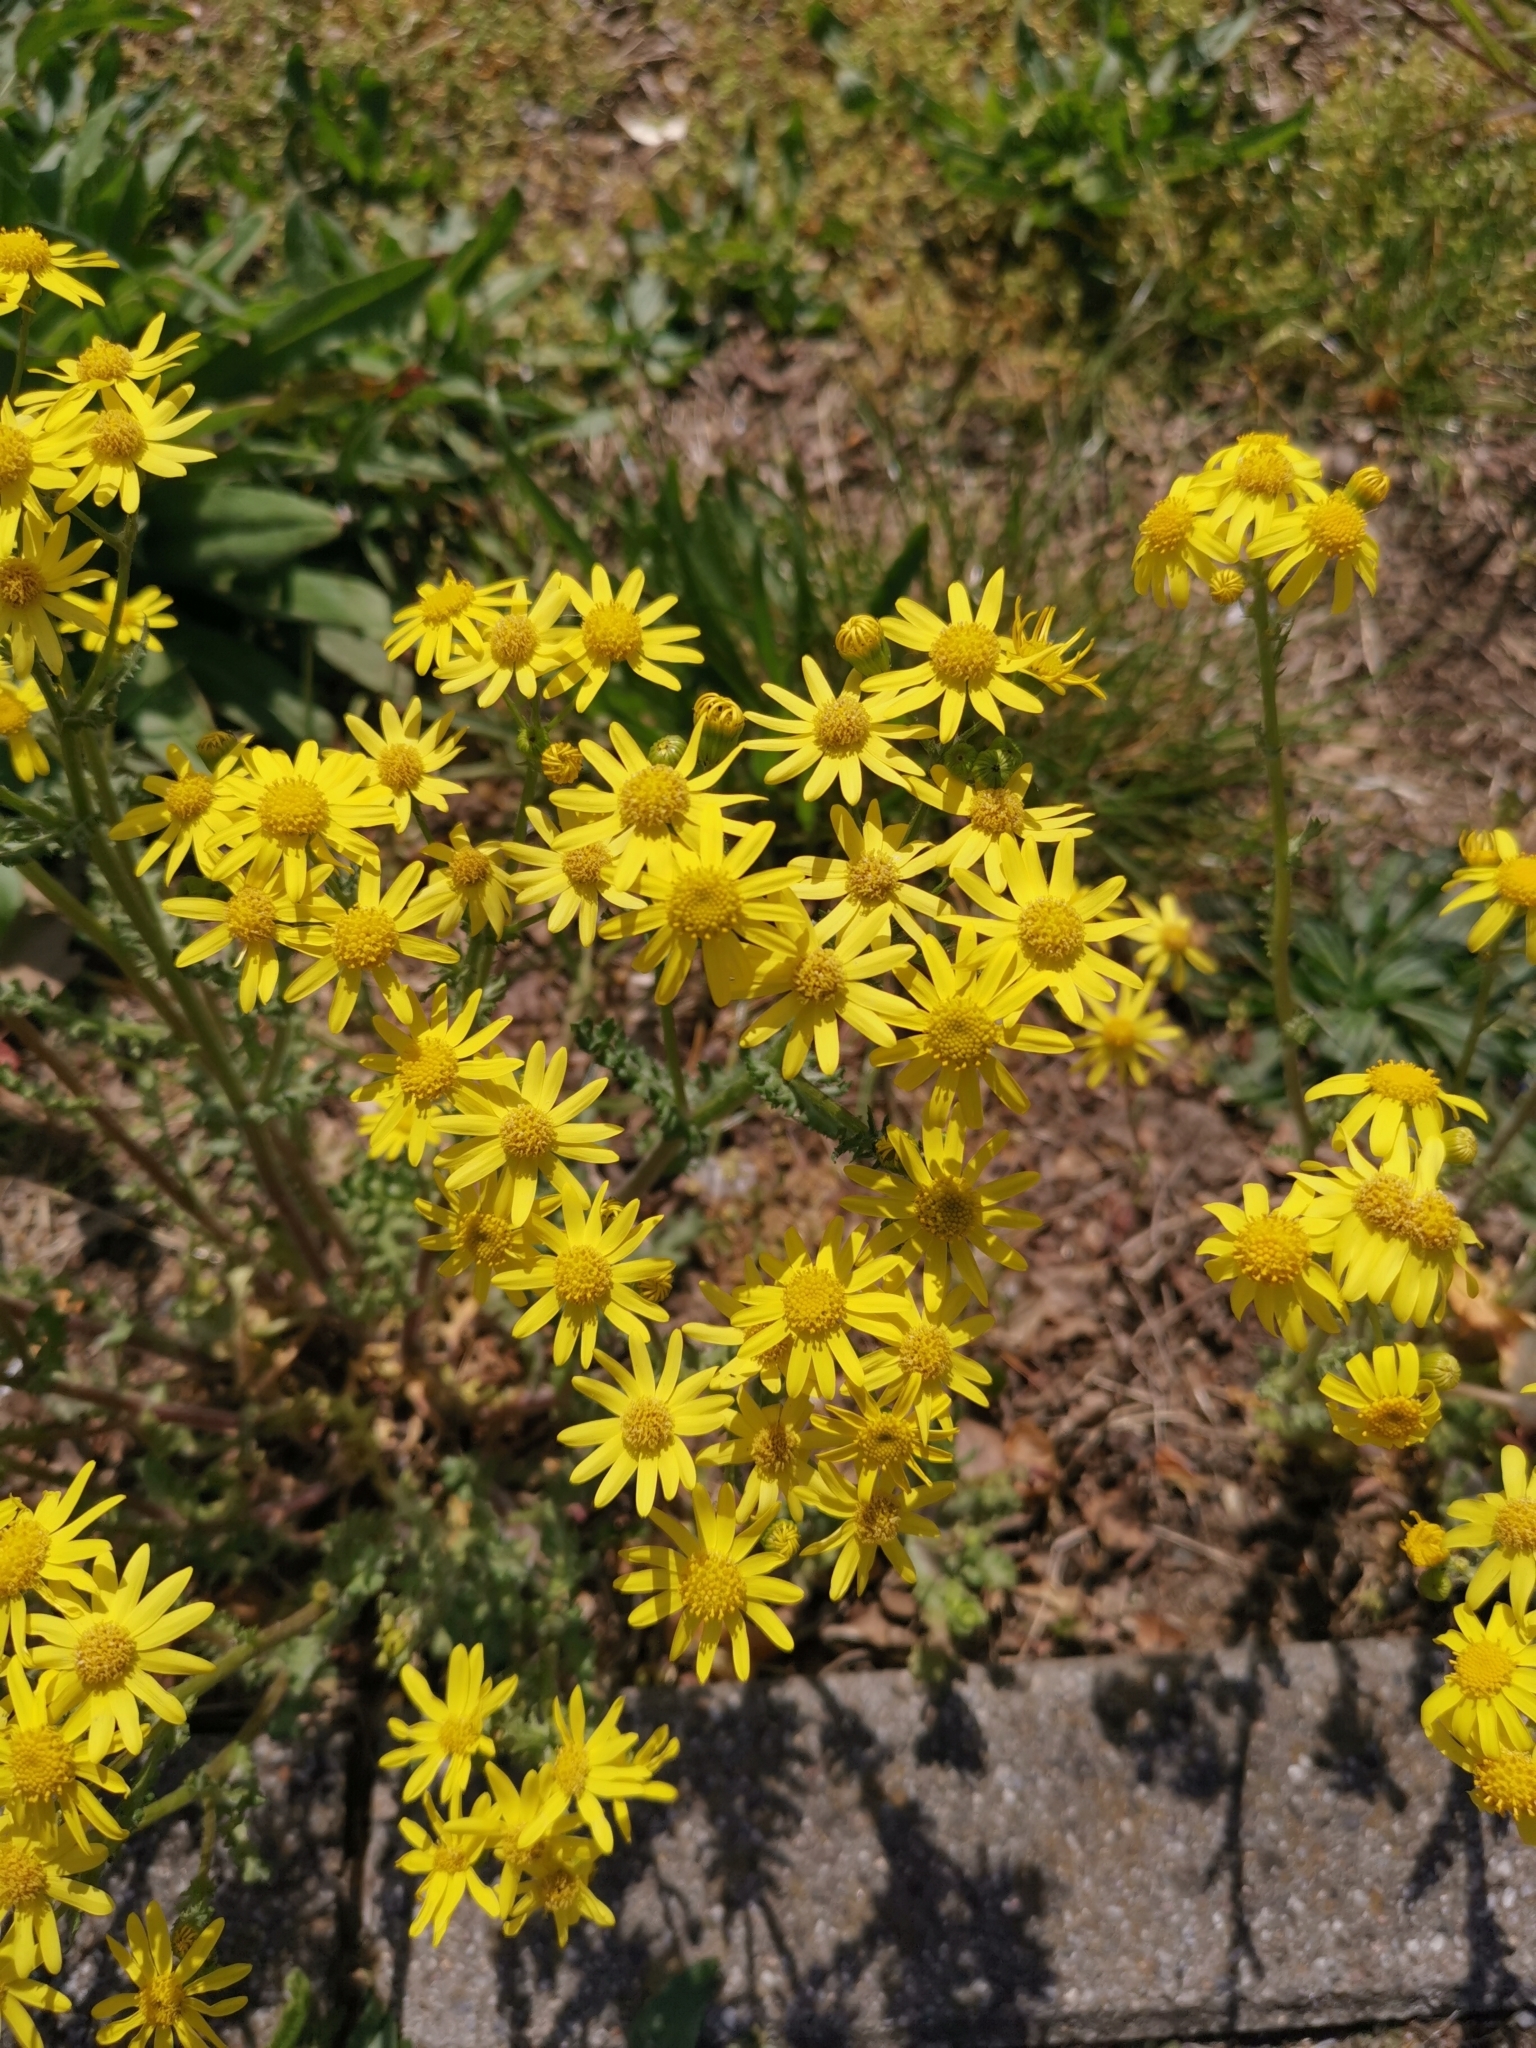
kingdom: Plantae
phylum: Tracheophyta
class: Magnoliopsida
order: Asterales
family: Asteraceae
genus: Senecio
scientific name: Senecio vernalis
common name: Eastern groundsel
